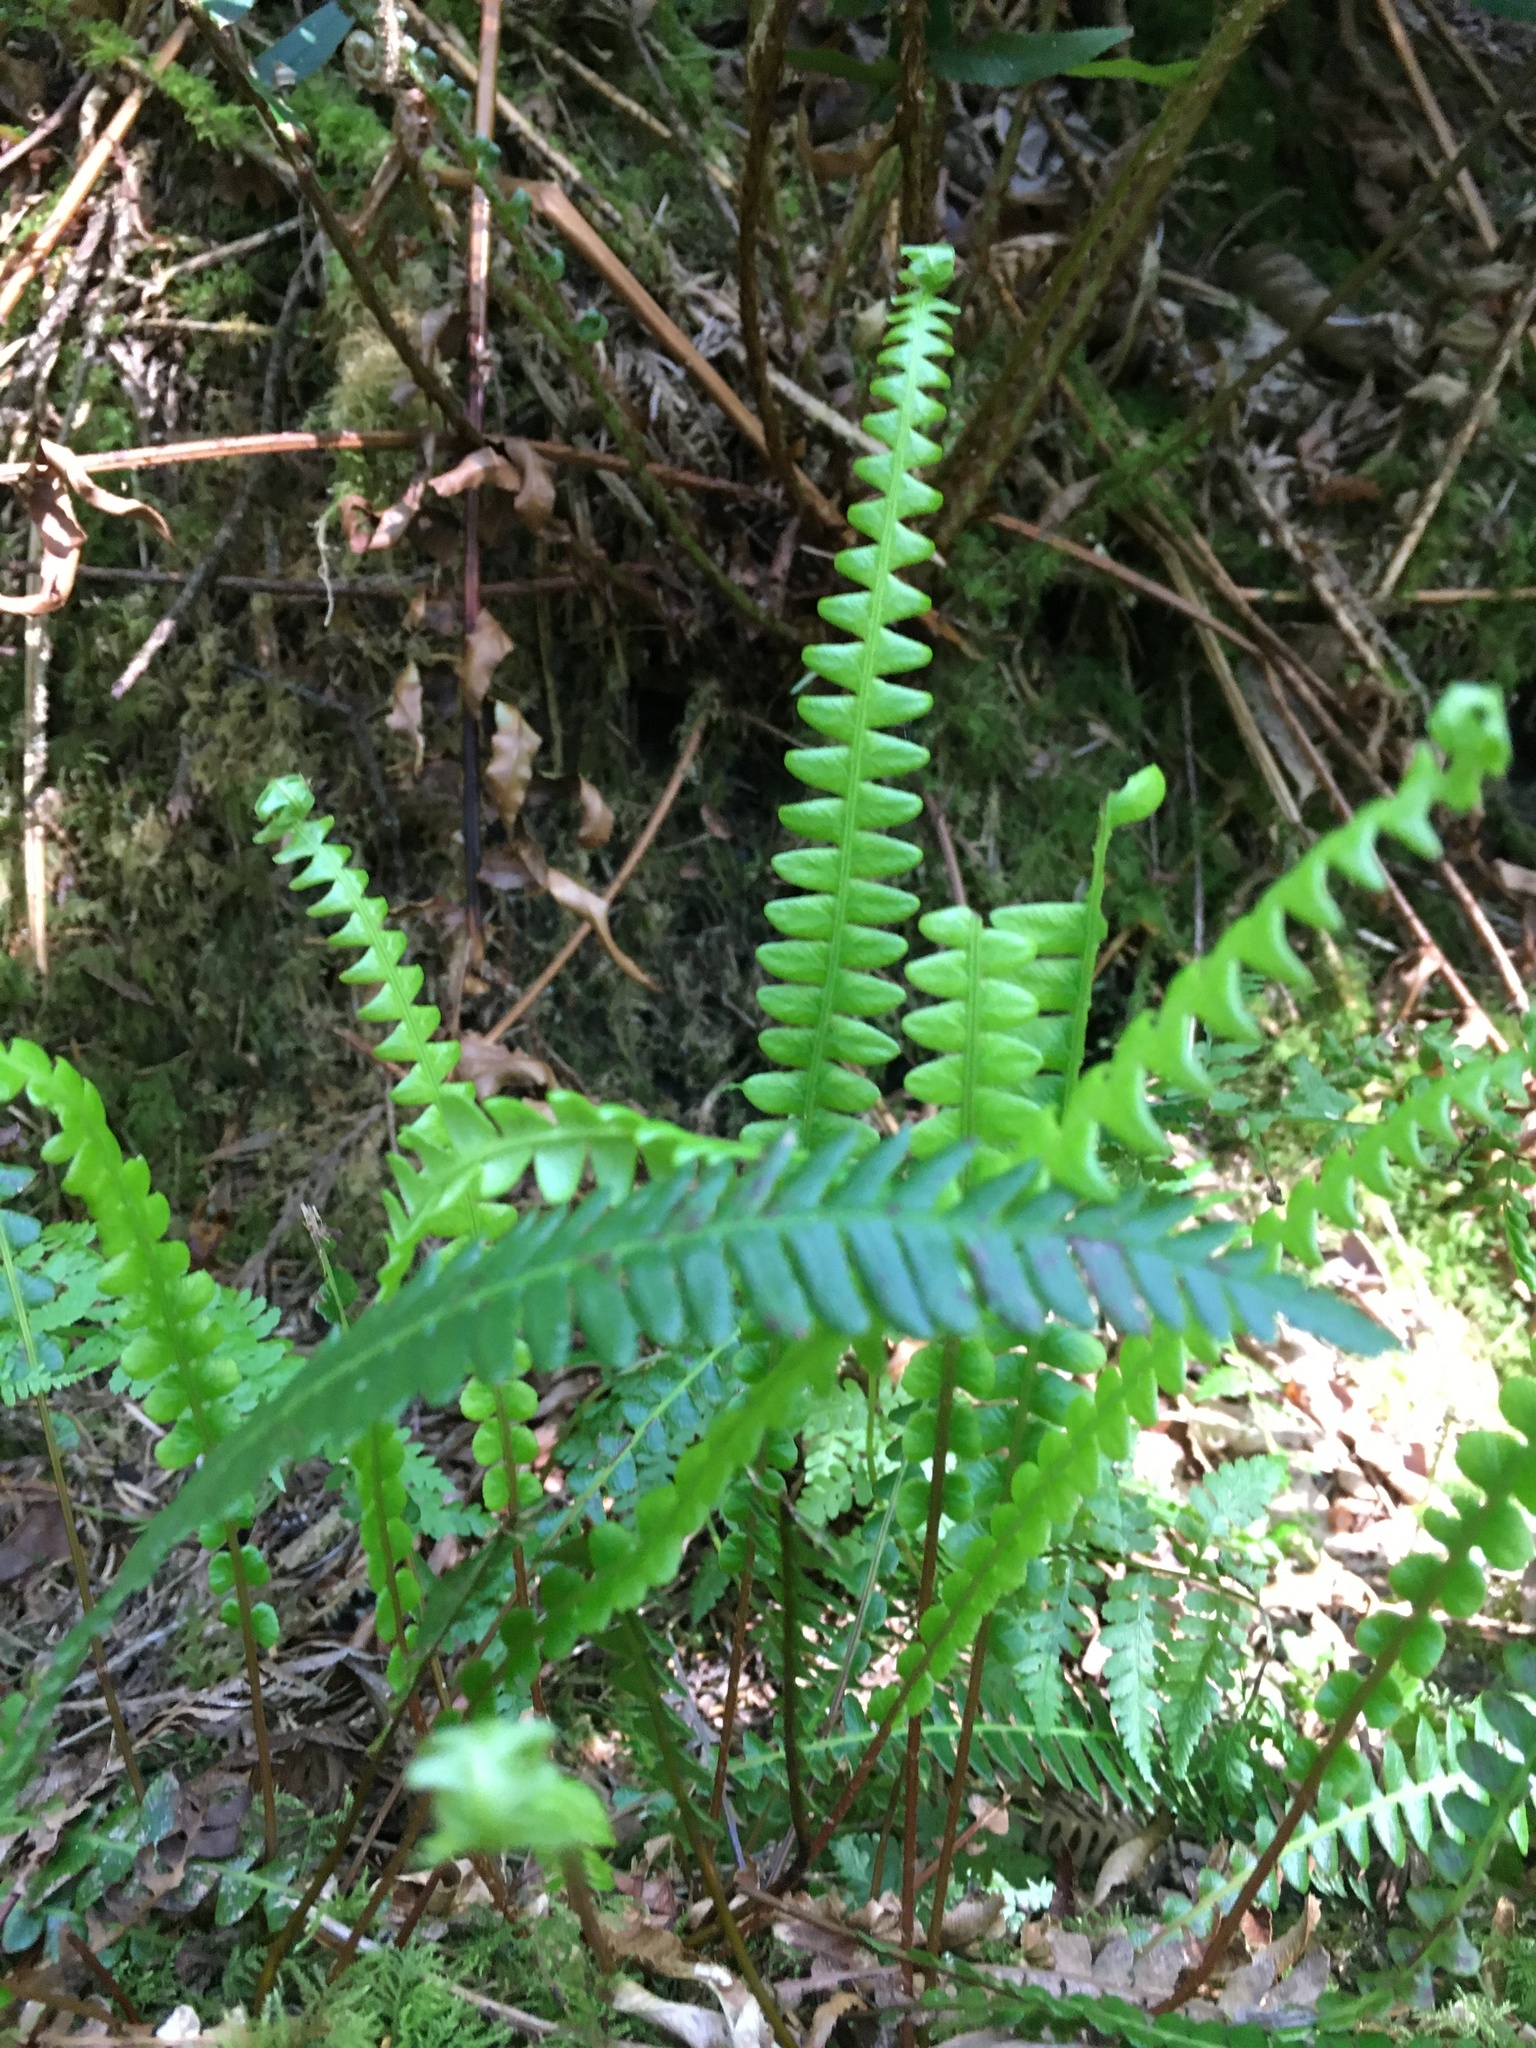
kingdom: Plantae
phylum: Tracheophyta
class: Polypodiopsida
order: Polypodiales
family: Blechnaceae
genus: Struthiopteris
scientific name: Struthiopteris spicant
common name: Deer fern
